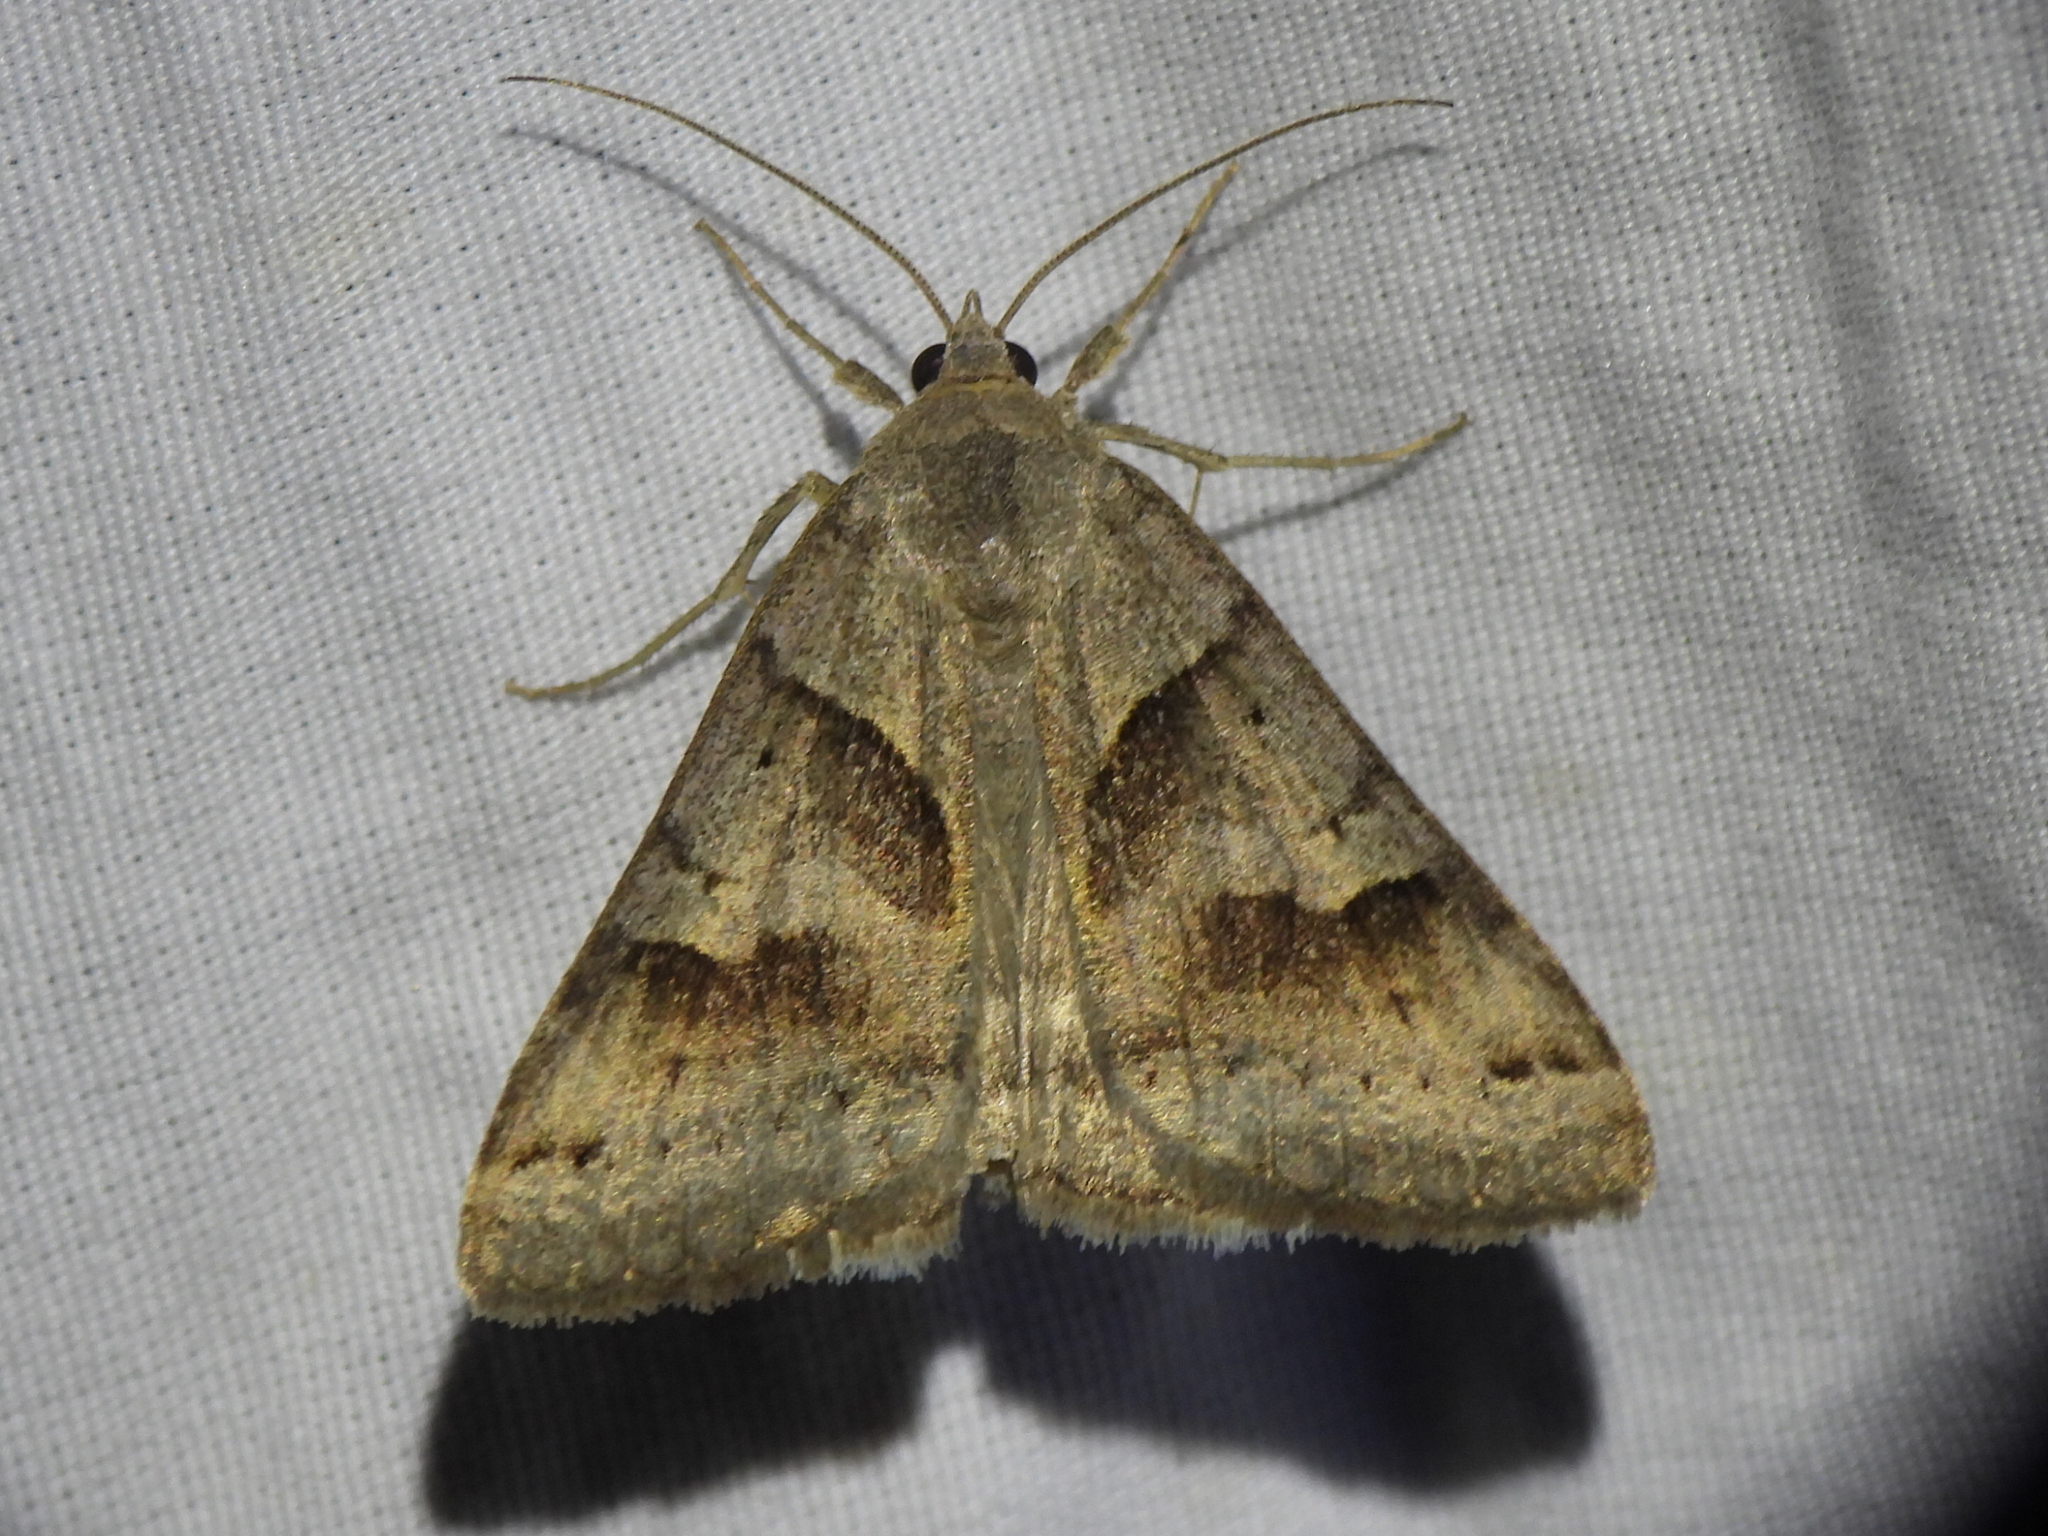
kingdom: Animalia
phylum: Arthropoda
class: Insecta
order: Lepidoptera
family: Erebidae
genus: Caenurgina
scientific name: Caenurgina erechtea
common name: Forage looper moth
